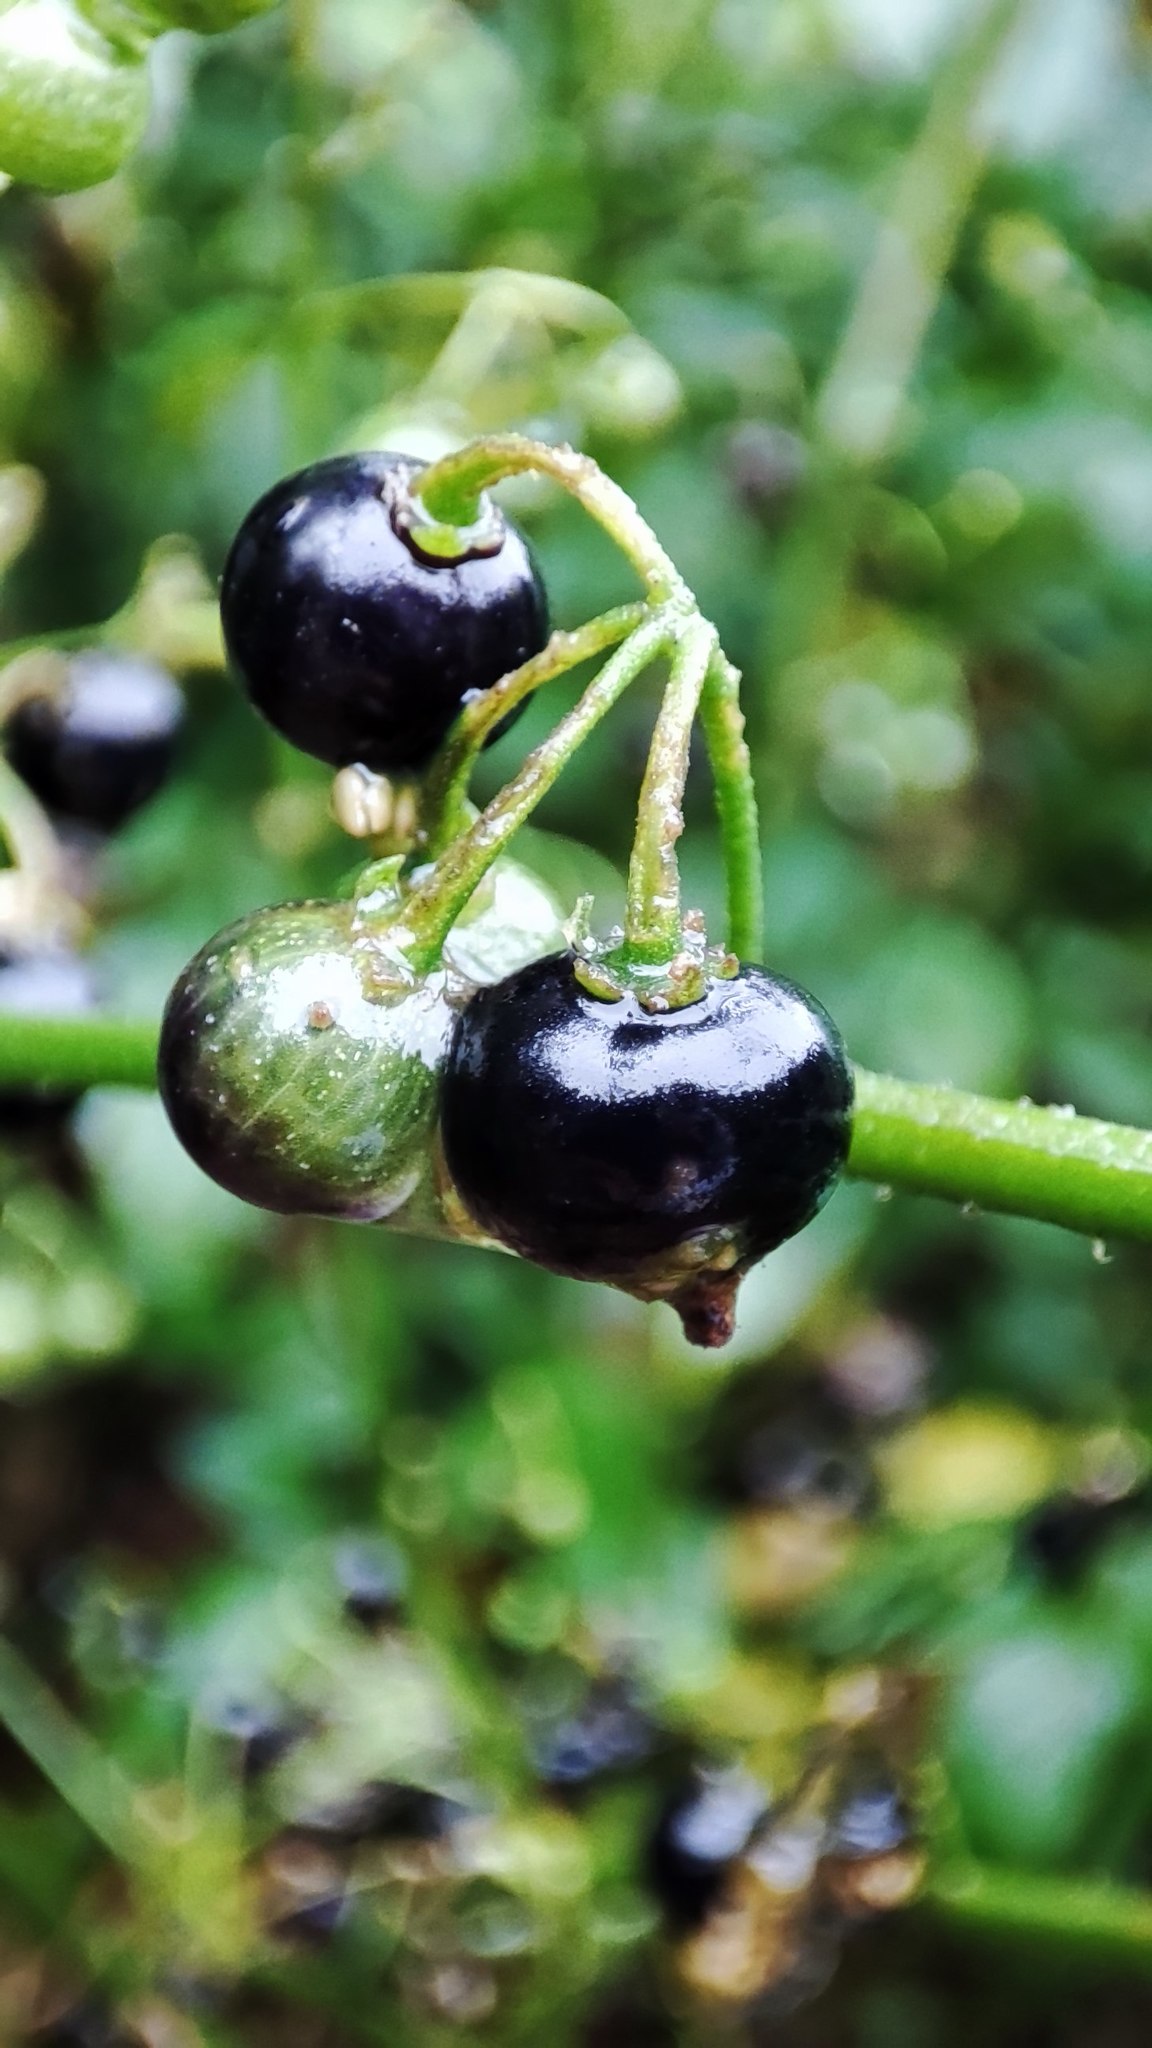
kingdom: Plantae
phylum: Tracheophyta
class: Magnoliopsida
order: Solanales
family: Solanaceae
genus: Solanum
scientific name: Solanum americanum
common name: American black nightshade
